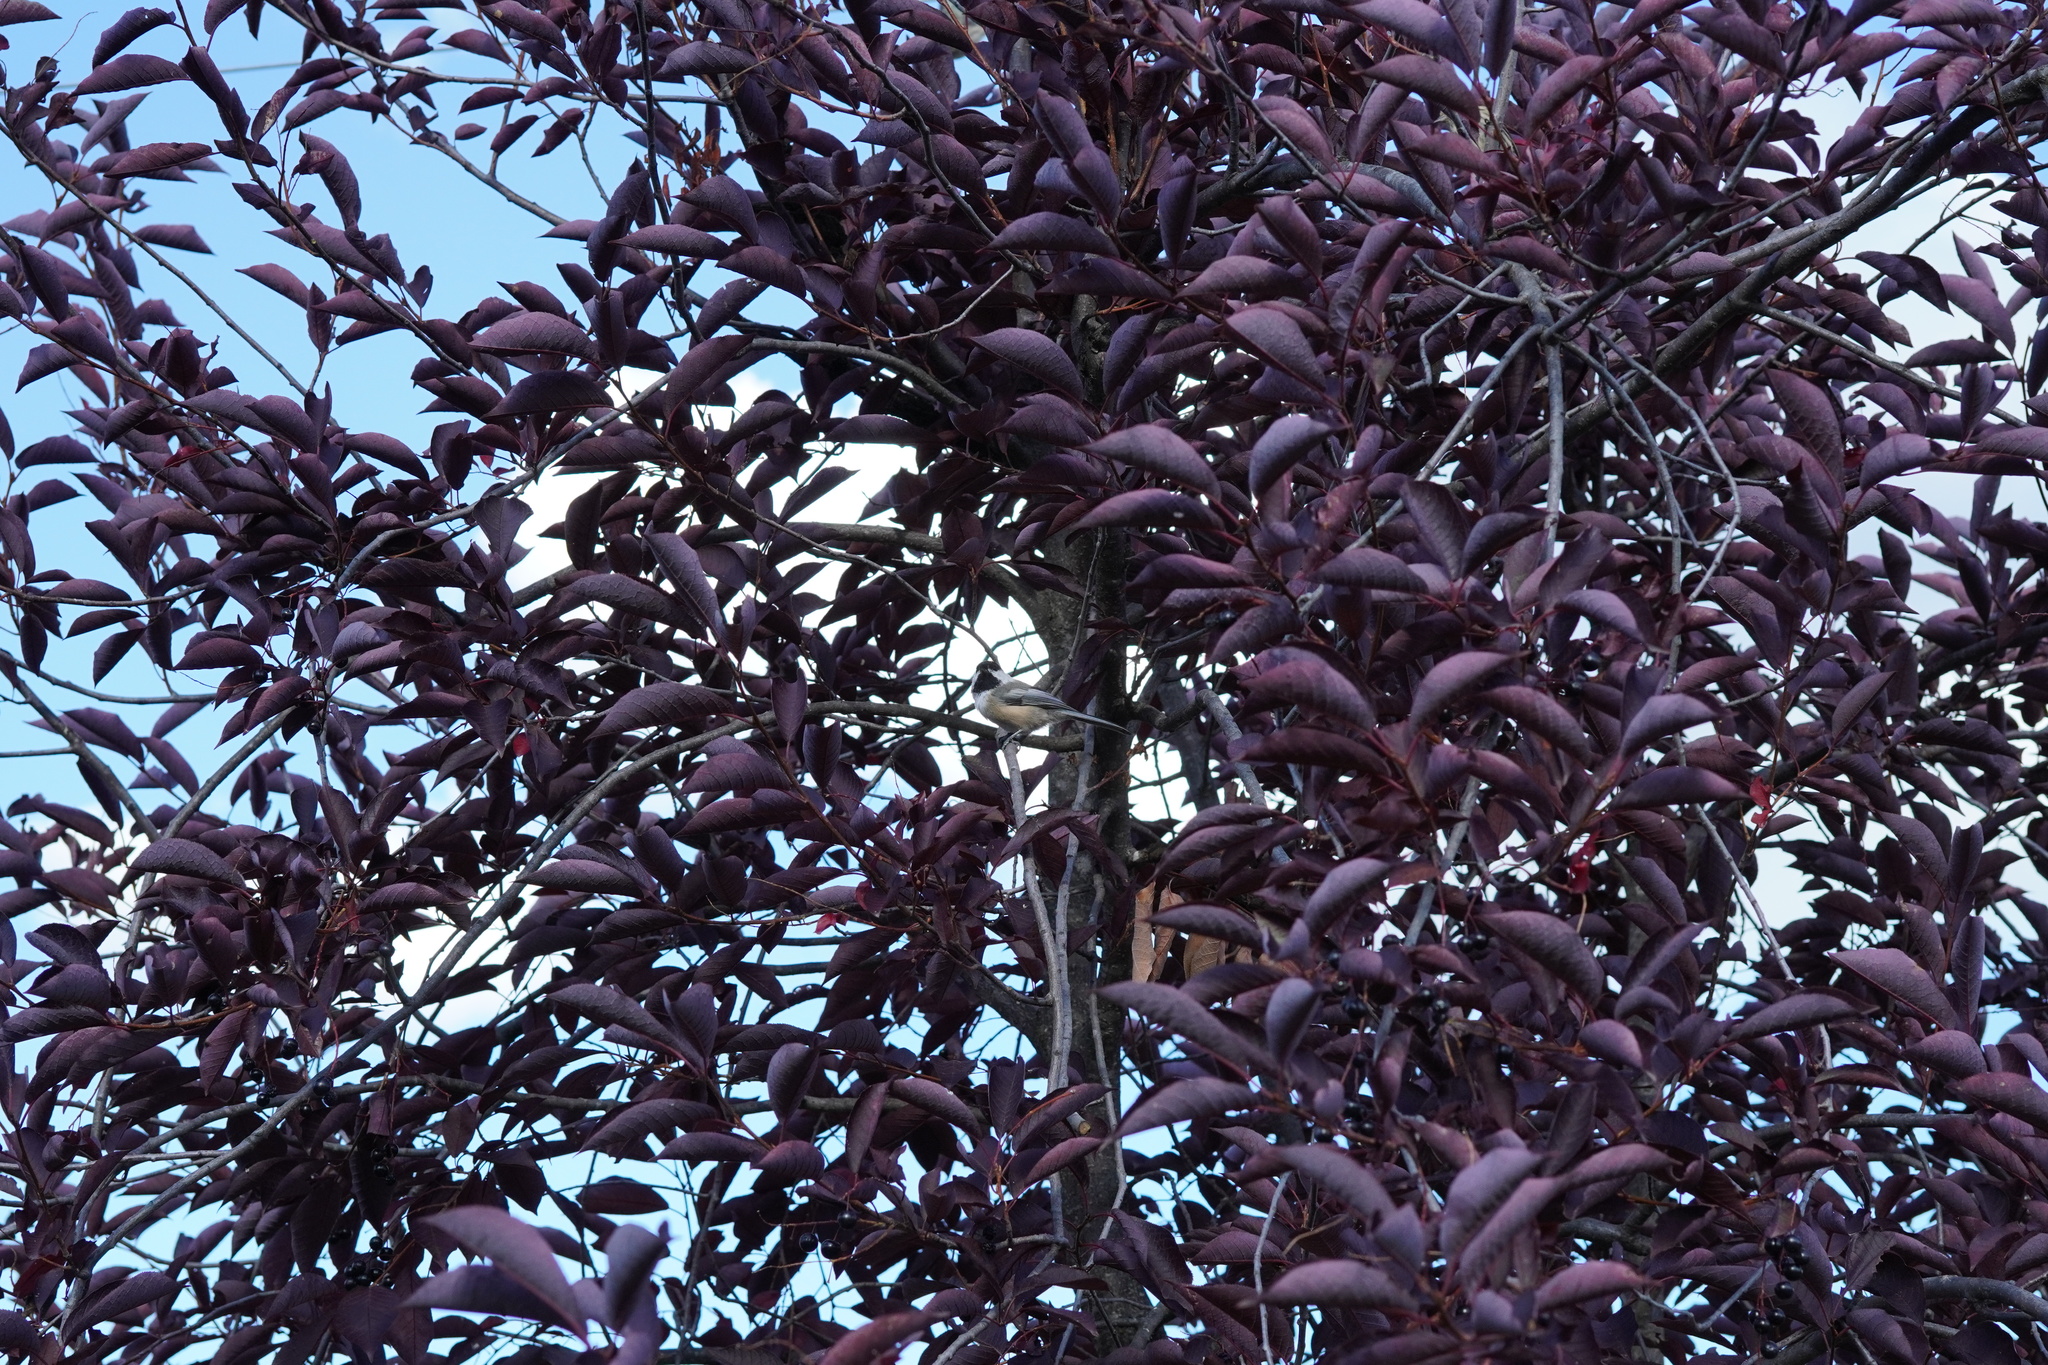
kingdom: Animalia
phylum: Chordata
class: Aves
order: Passeriformes
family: Paridae
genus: Poecile
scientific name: Poecile atricapillus
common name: Black-capped chickadee
